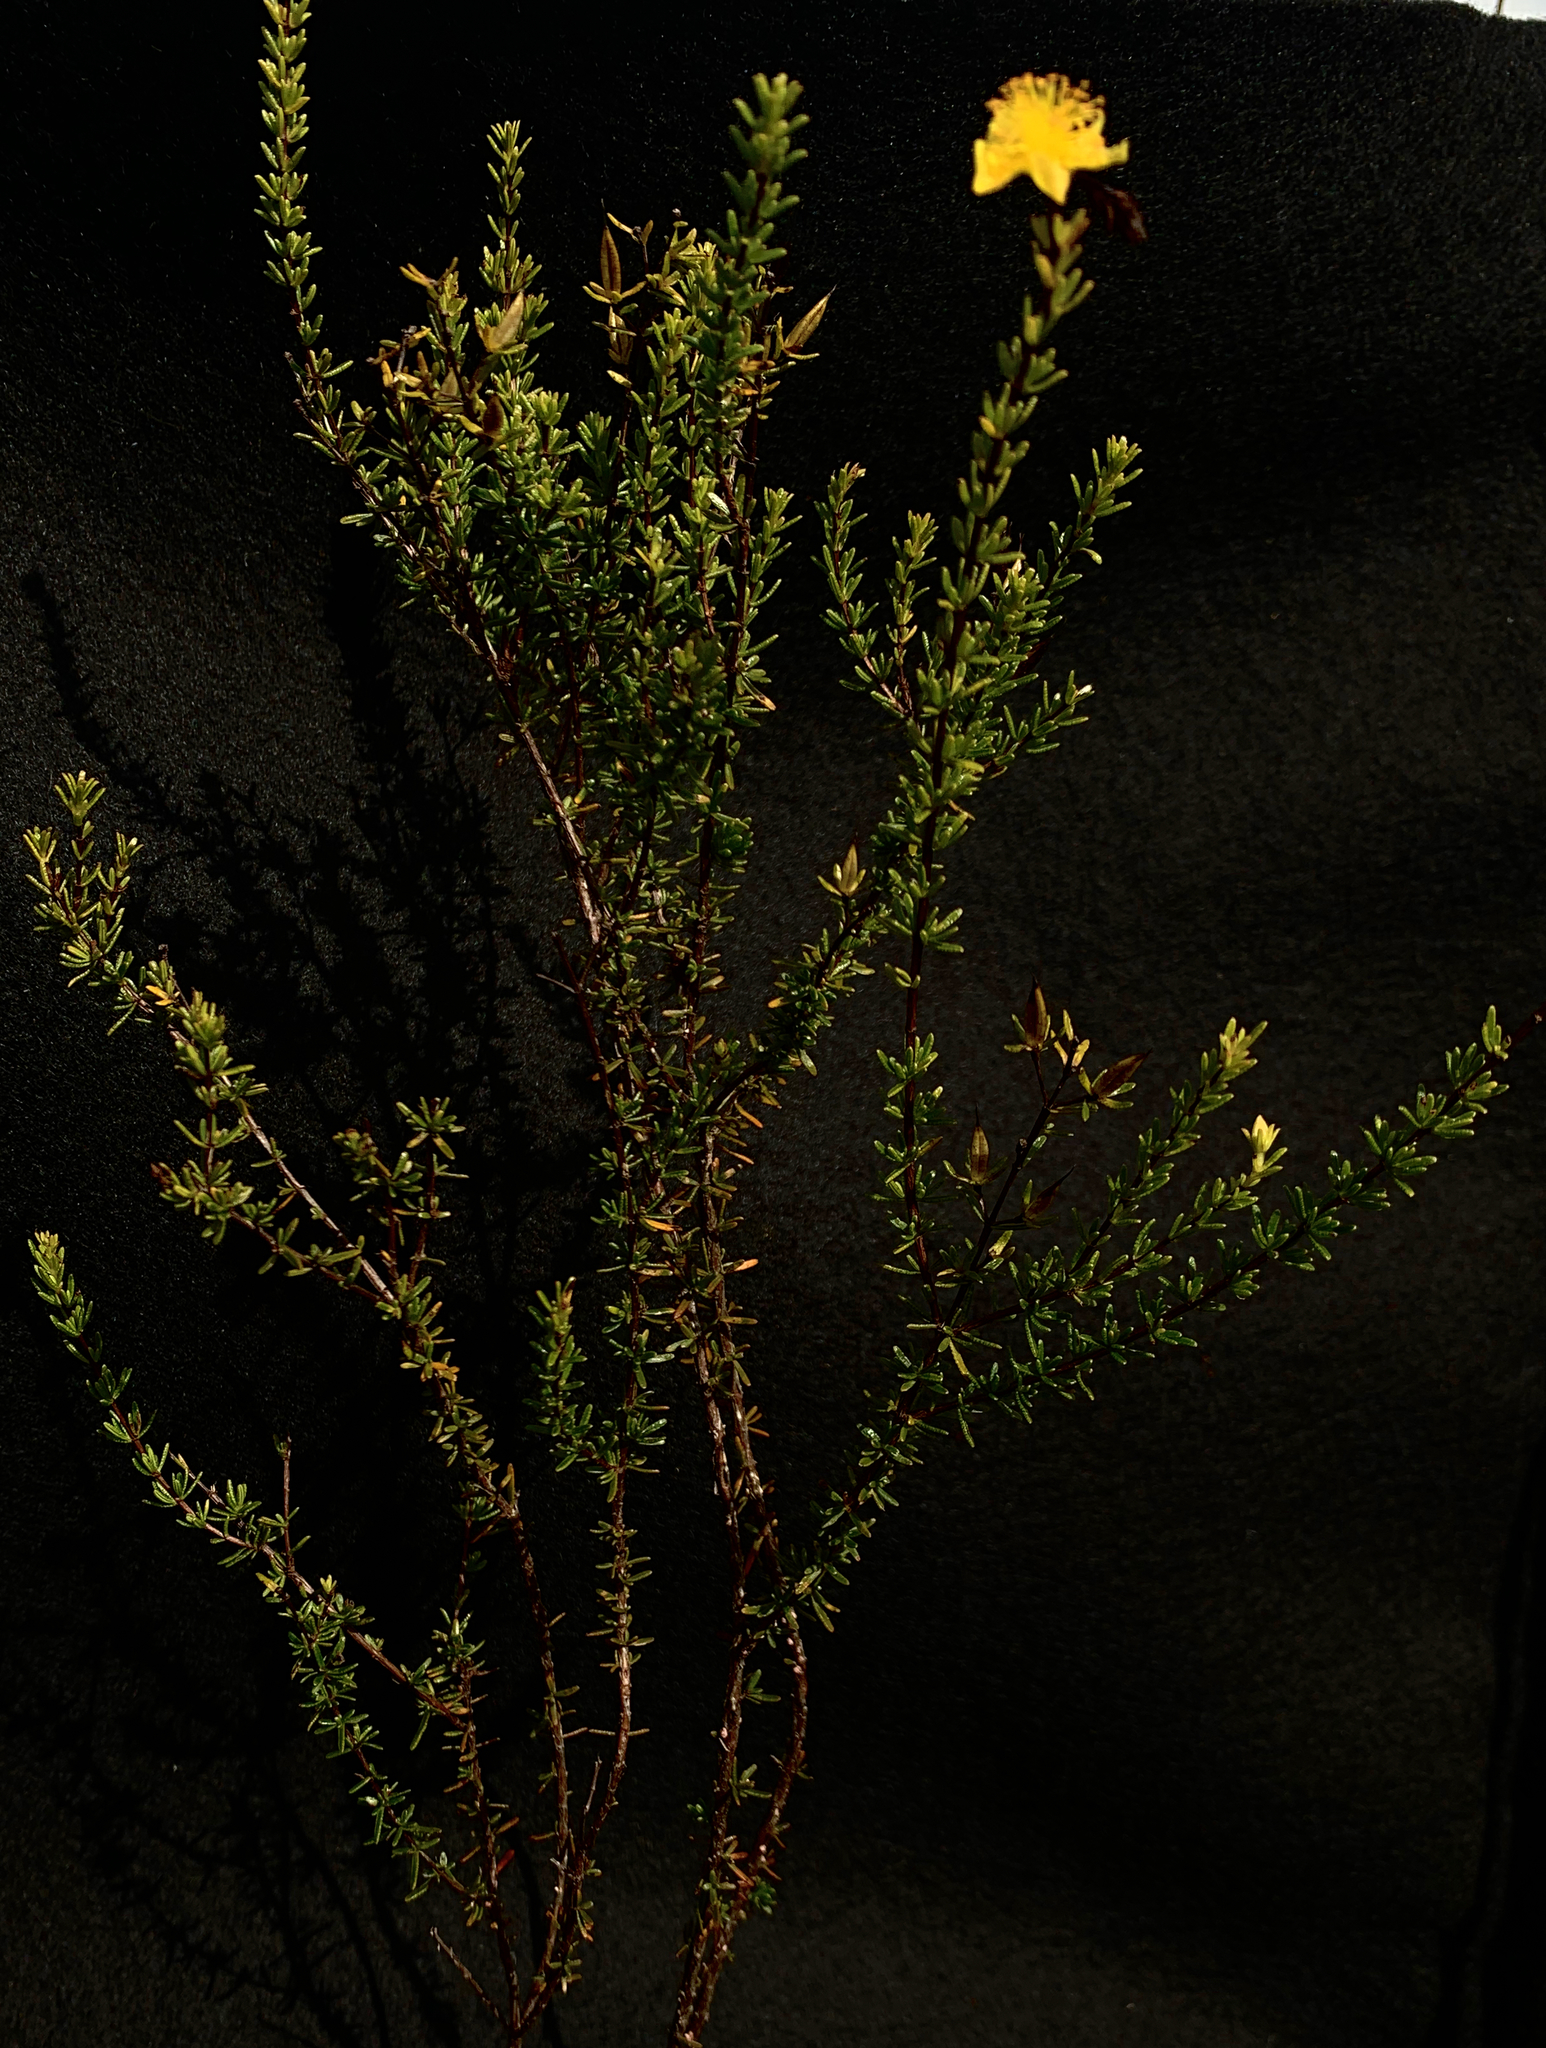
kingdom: Plantae
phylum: Tracheophyta
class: Magnoliopsida
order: Malpighiales
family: Hypericaceae
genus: Hypericum
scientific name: Hypericum tenuifolium
